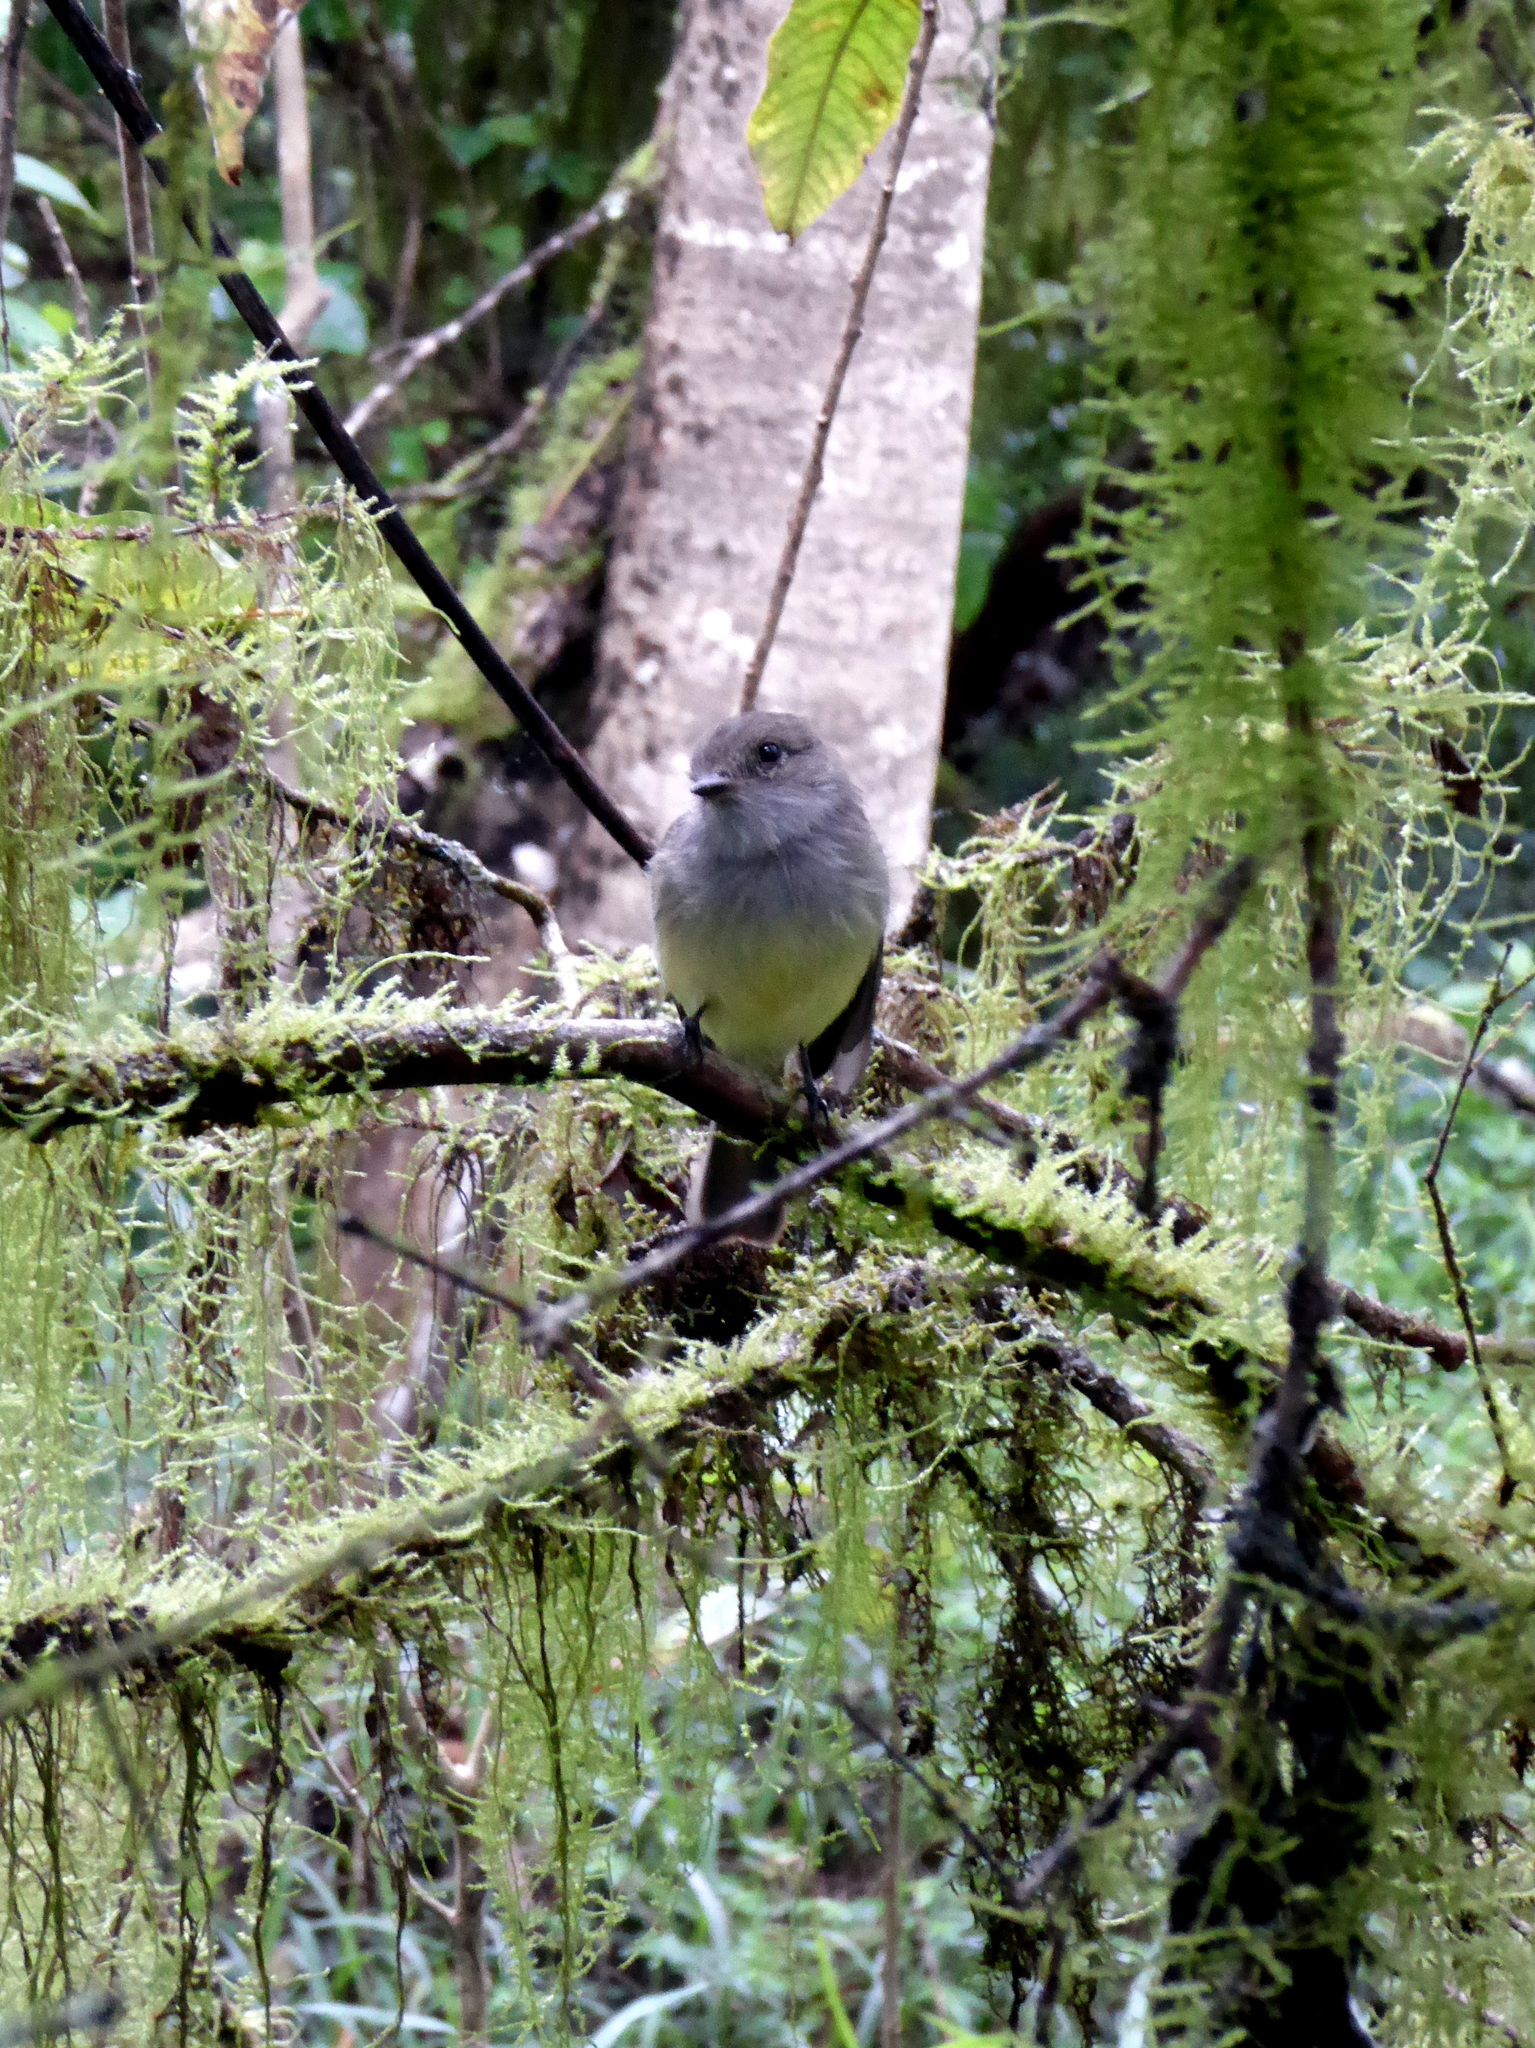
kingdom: Animalia
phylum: Chordata
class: Aves
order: Passeriformes
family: Tyrannidae
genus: Myiarchus
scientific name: Myiarchus magnirostris
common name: Galapagos flycatcher
